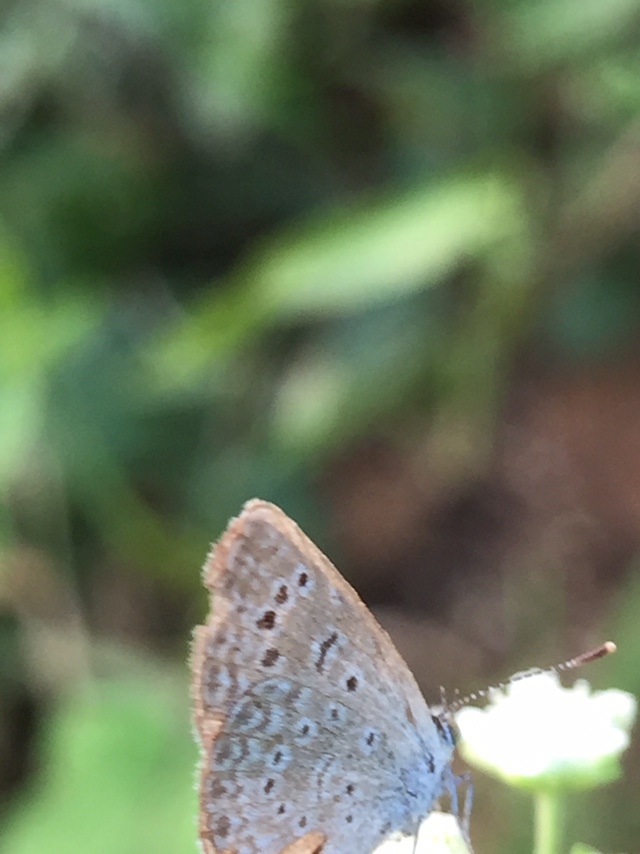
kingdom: Animalia
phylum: Arthropoda
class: Insecta
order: Lepidoptera
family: Lycaenidae
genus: Zizeeria
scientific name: Zizeeria karsandra
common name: Dark grass blue
